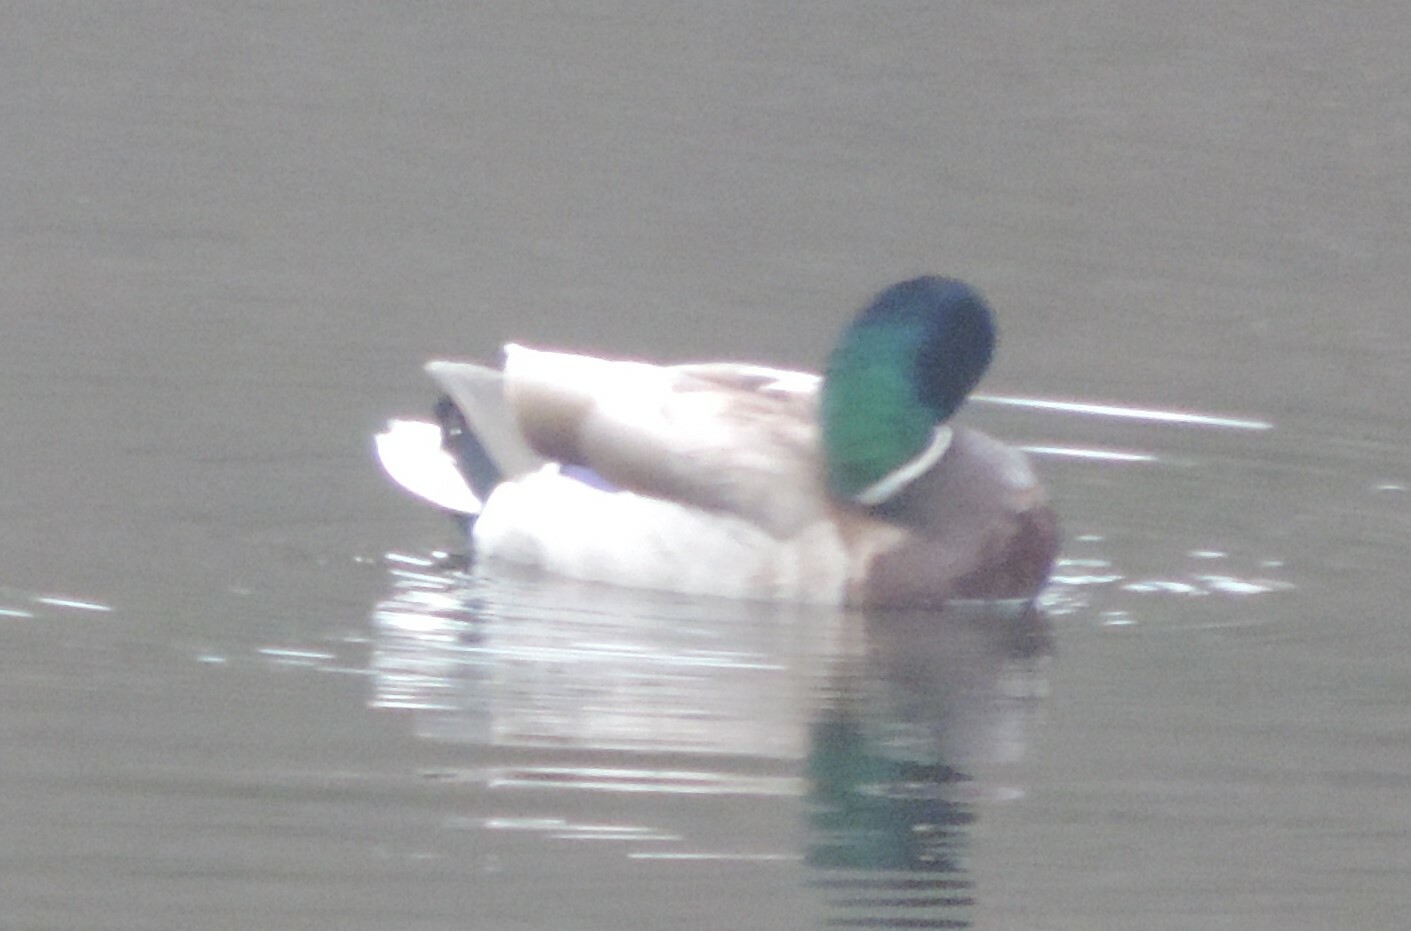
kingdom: Animalia
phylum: Chordata
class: Aves
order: Anseriformes
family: Anatidae
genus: Anas
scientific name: Anas platyrhynchos
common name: Mallard
